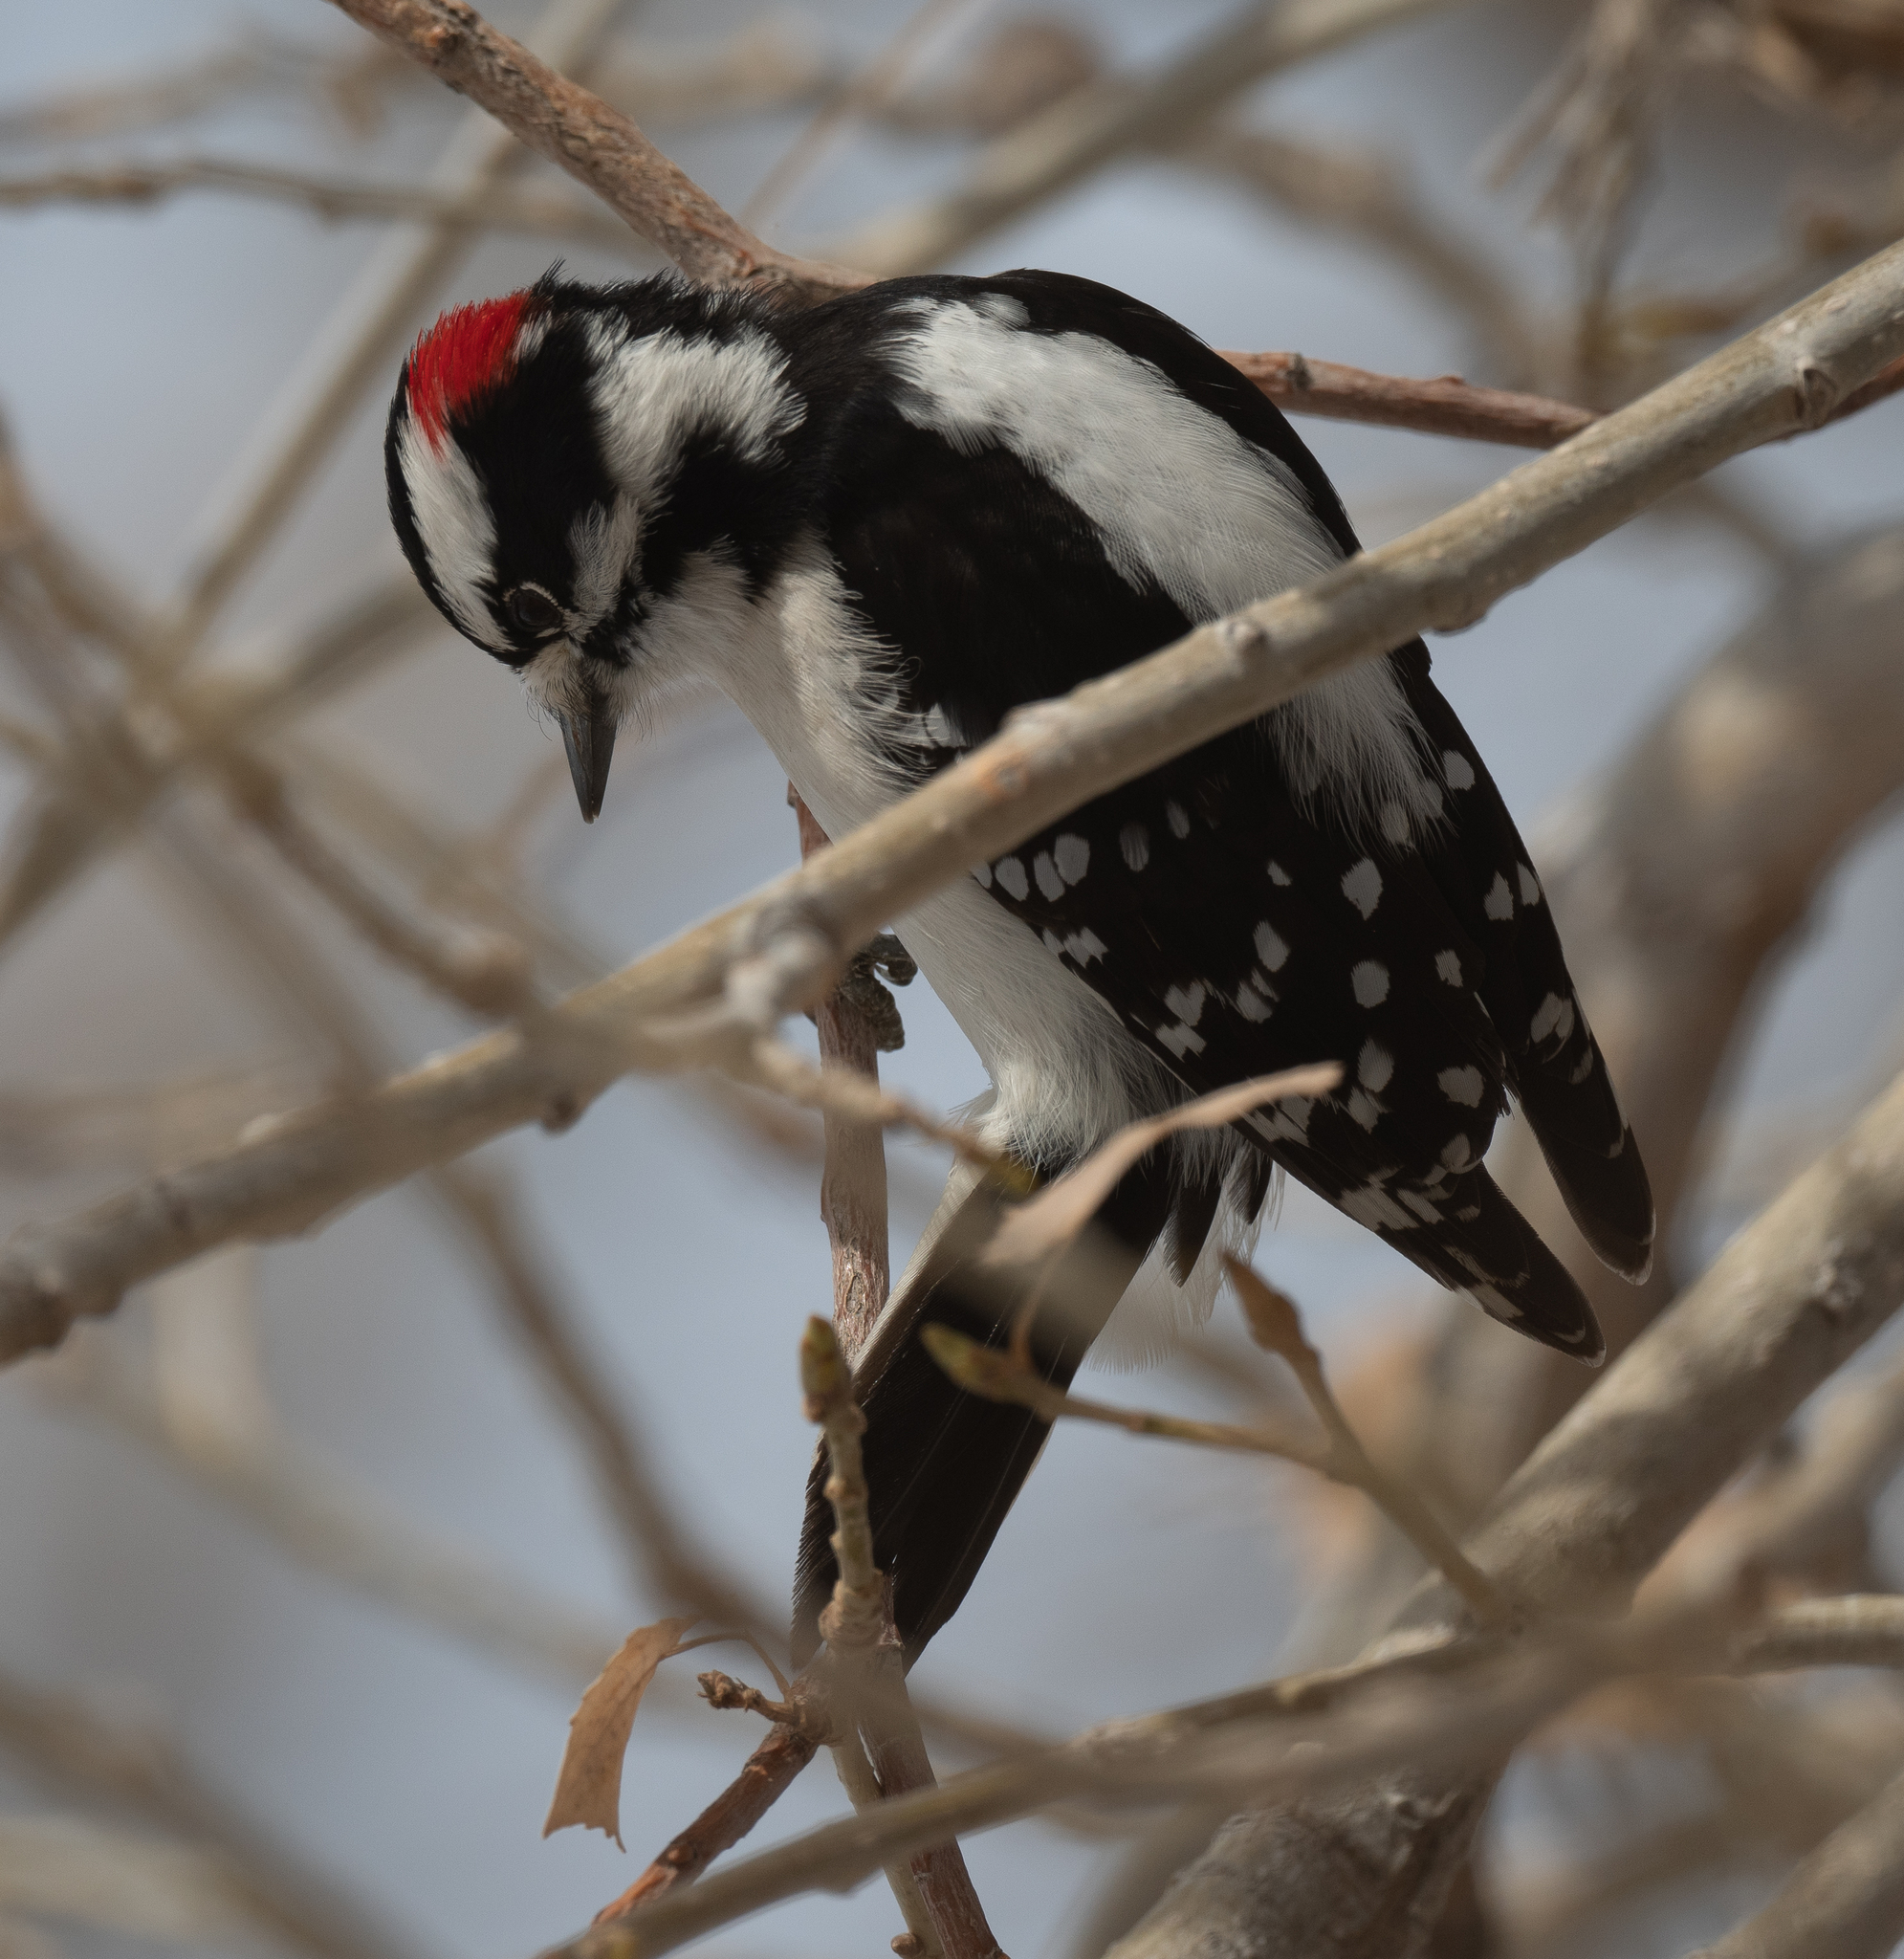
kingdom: Animalia
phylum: Chordata
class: Aves
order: Piciformes
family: Picidae
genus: Dryobates
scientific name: Dryobates pubescens
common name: Downy woodpecker
